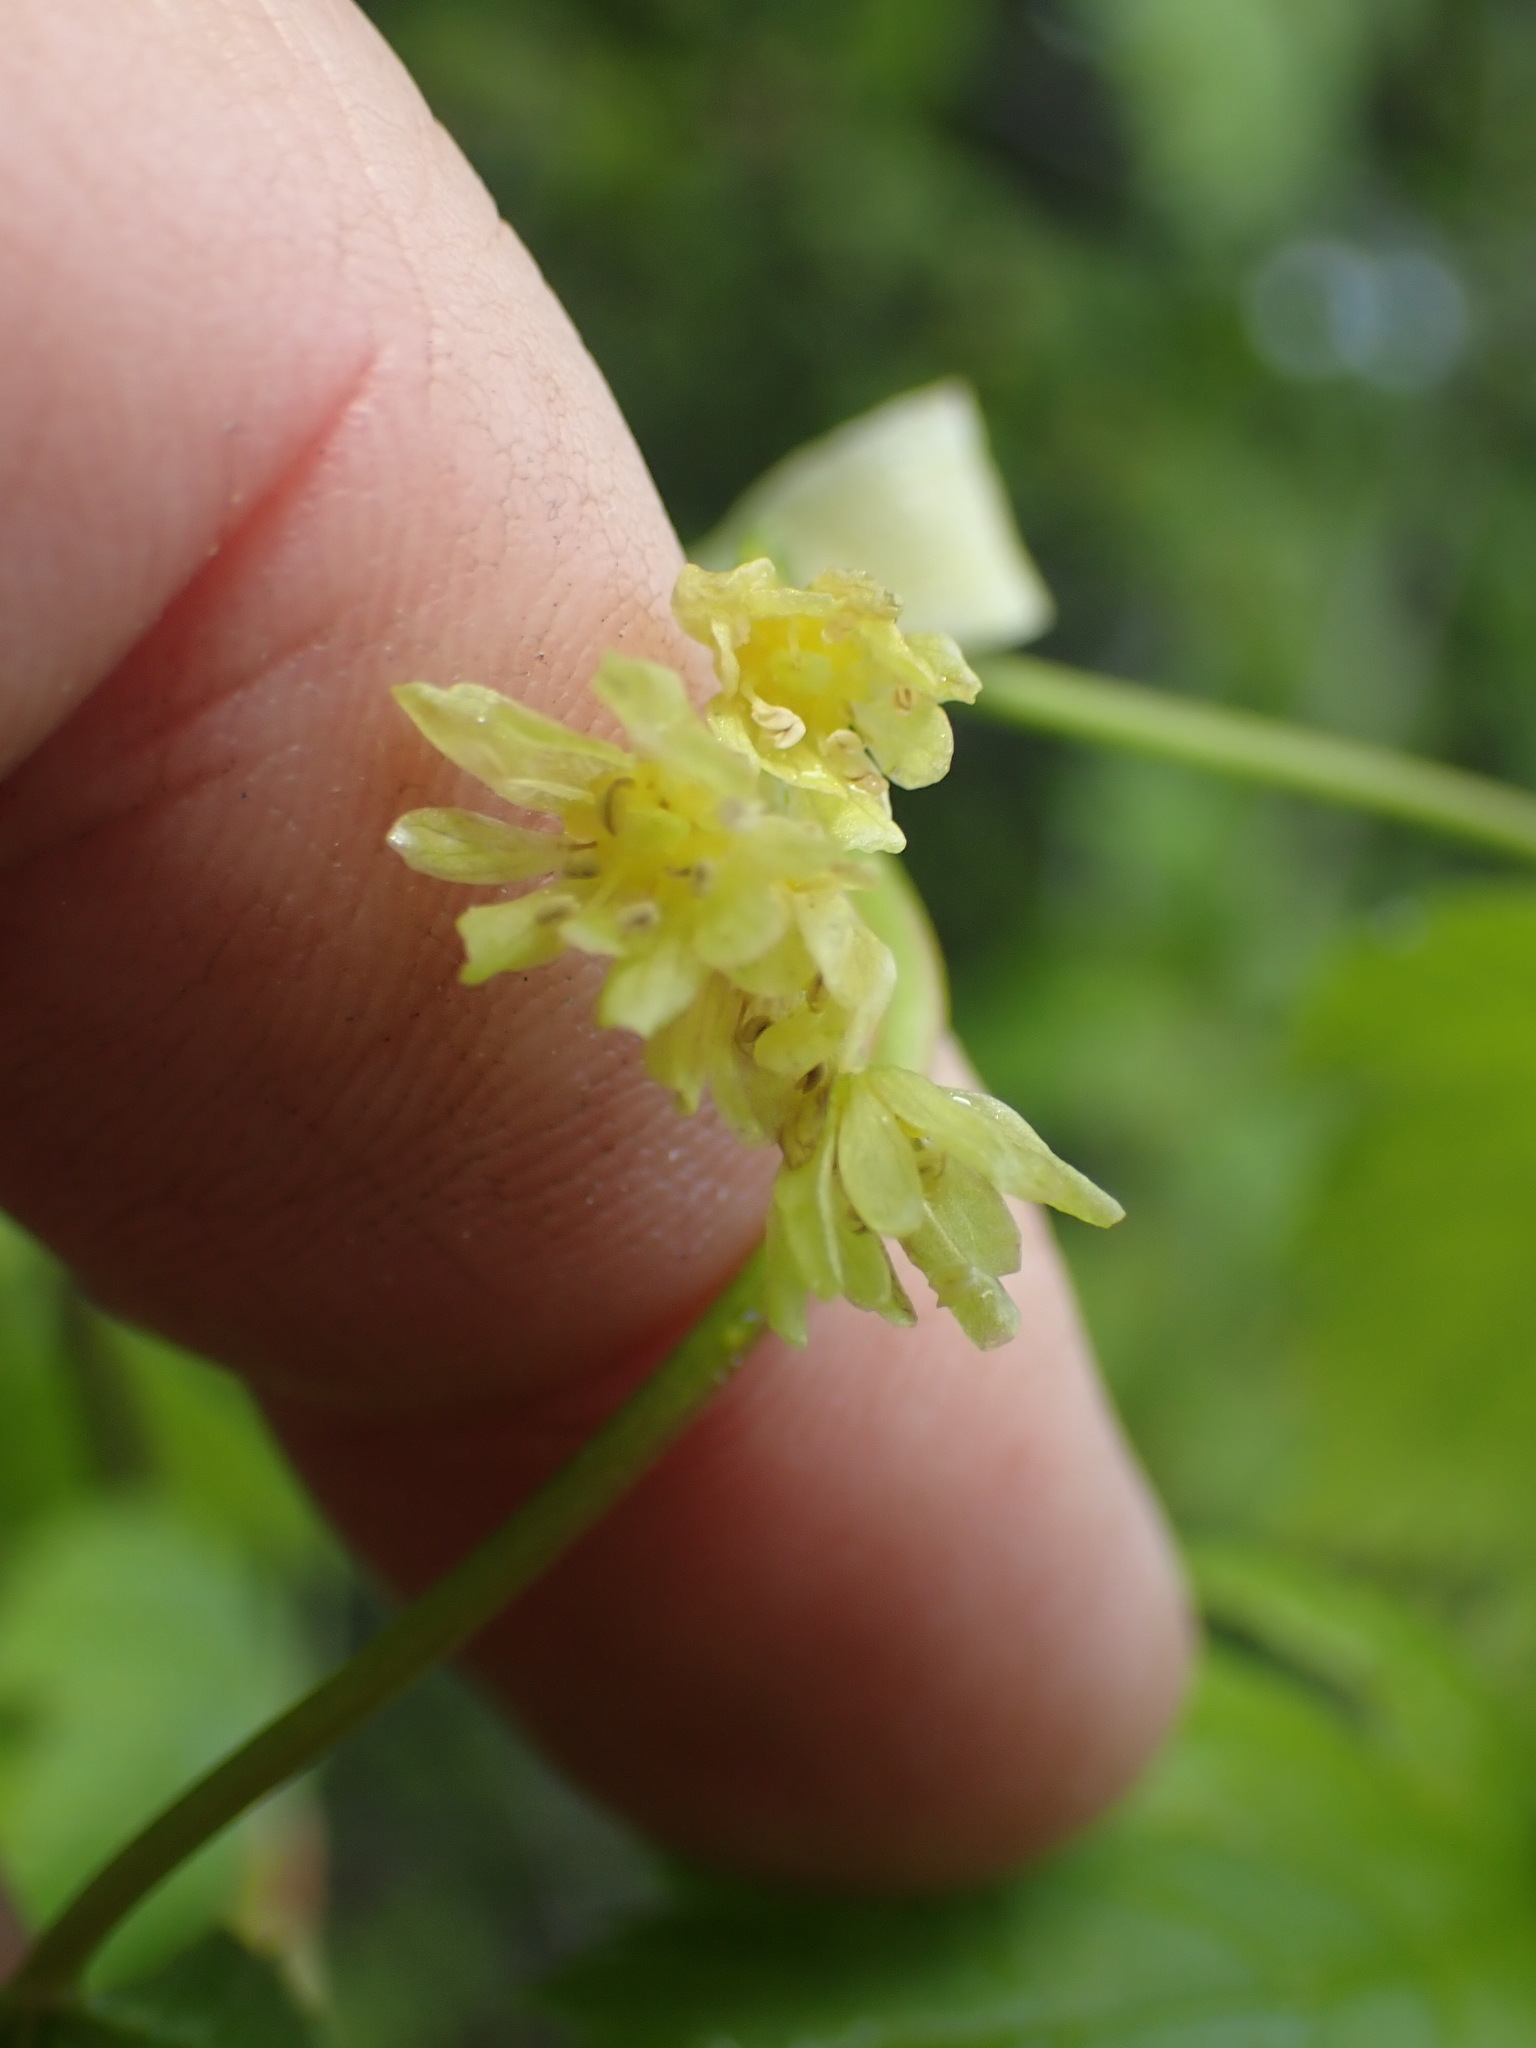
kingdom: Plantae
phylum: Tracheophyta
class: Magnoliopsida
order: Dipsacales
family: Viburnaceae
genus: Adoxa
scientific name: Adoxa moschatellina
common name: Moschatel
